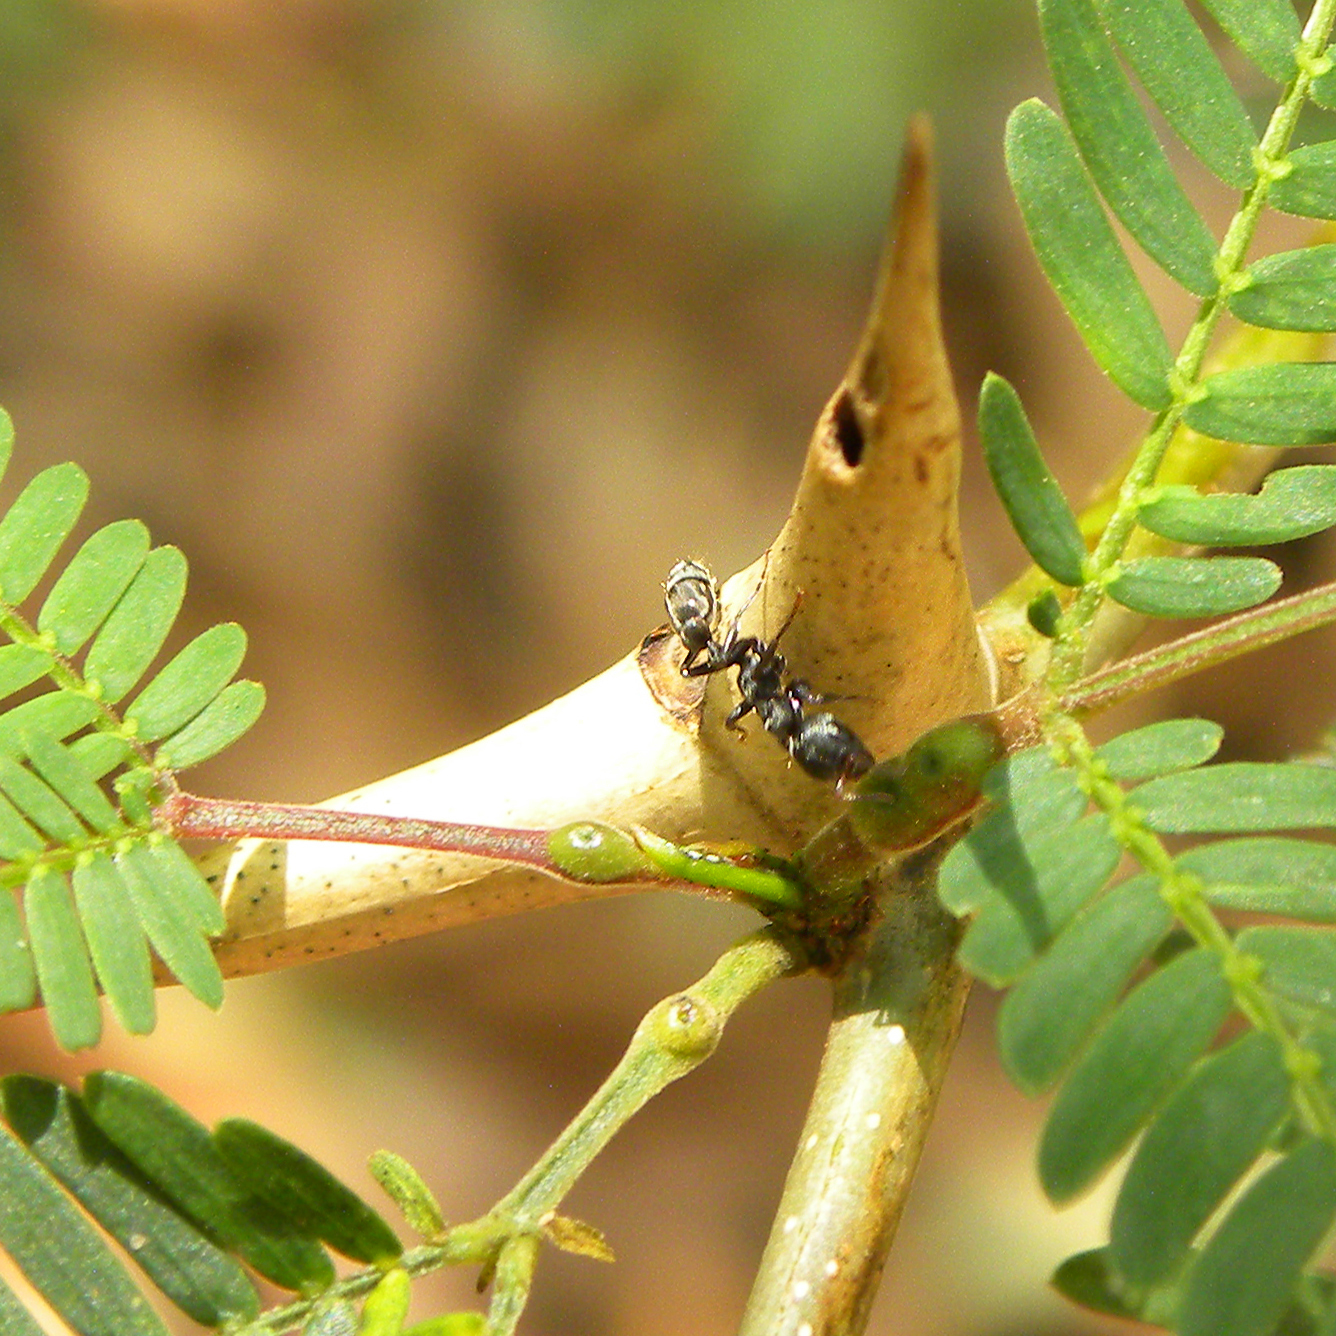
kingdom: Animalia
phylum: Arthropoda
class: Insecta
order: Hymenoptera
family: Formicidae
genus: Pseudomyrmex
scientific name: Pseudomyrmex
